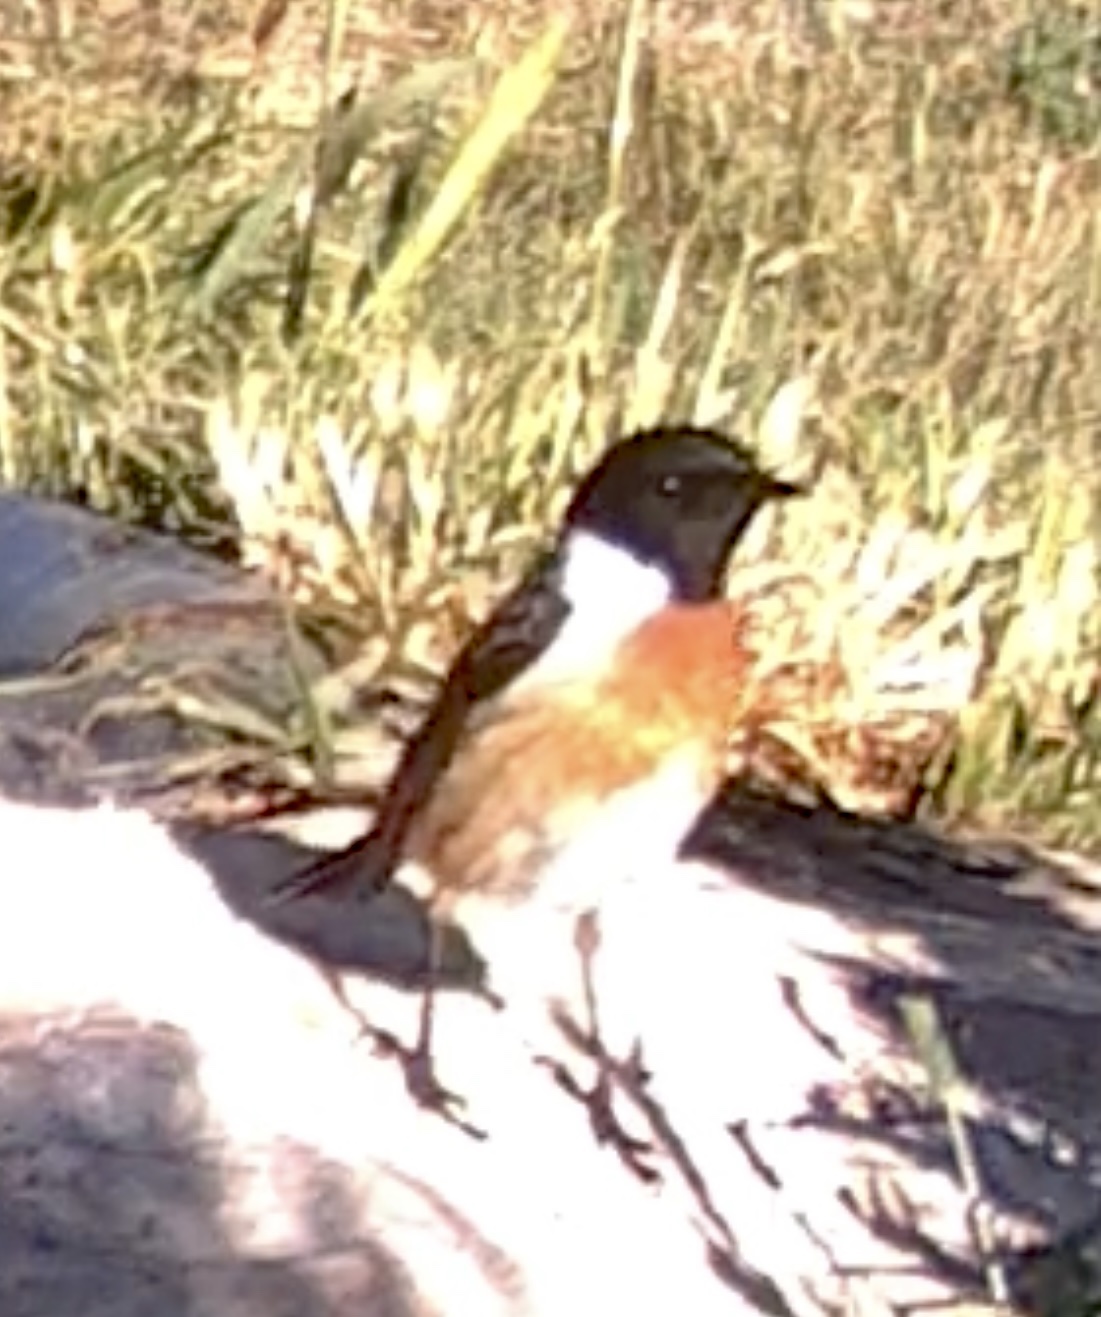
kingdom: Animalia
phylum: Chordata
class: Aves
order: Passeriformes
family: Muscicapidae
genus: Saxicola
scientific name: Saxicola rubicola
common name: European stonechat
